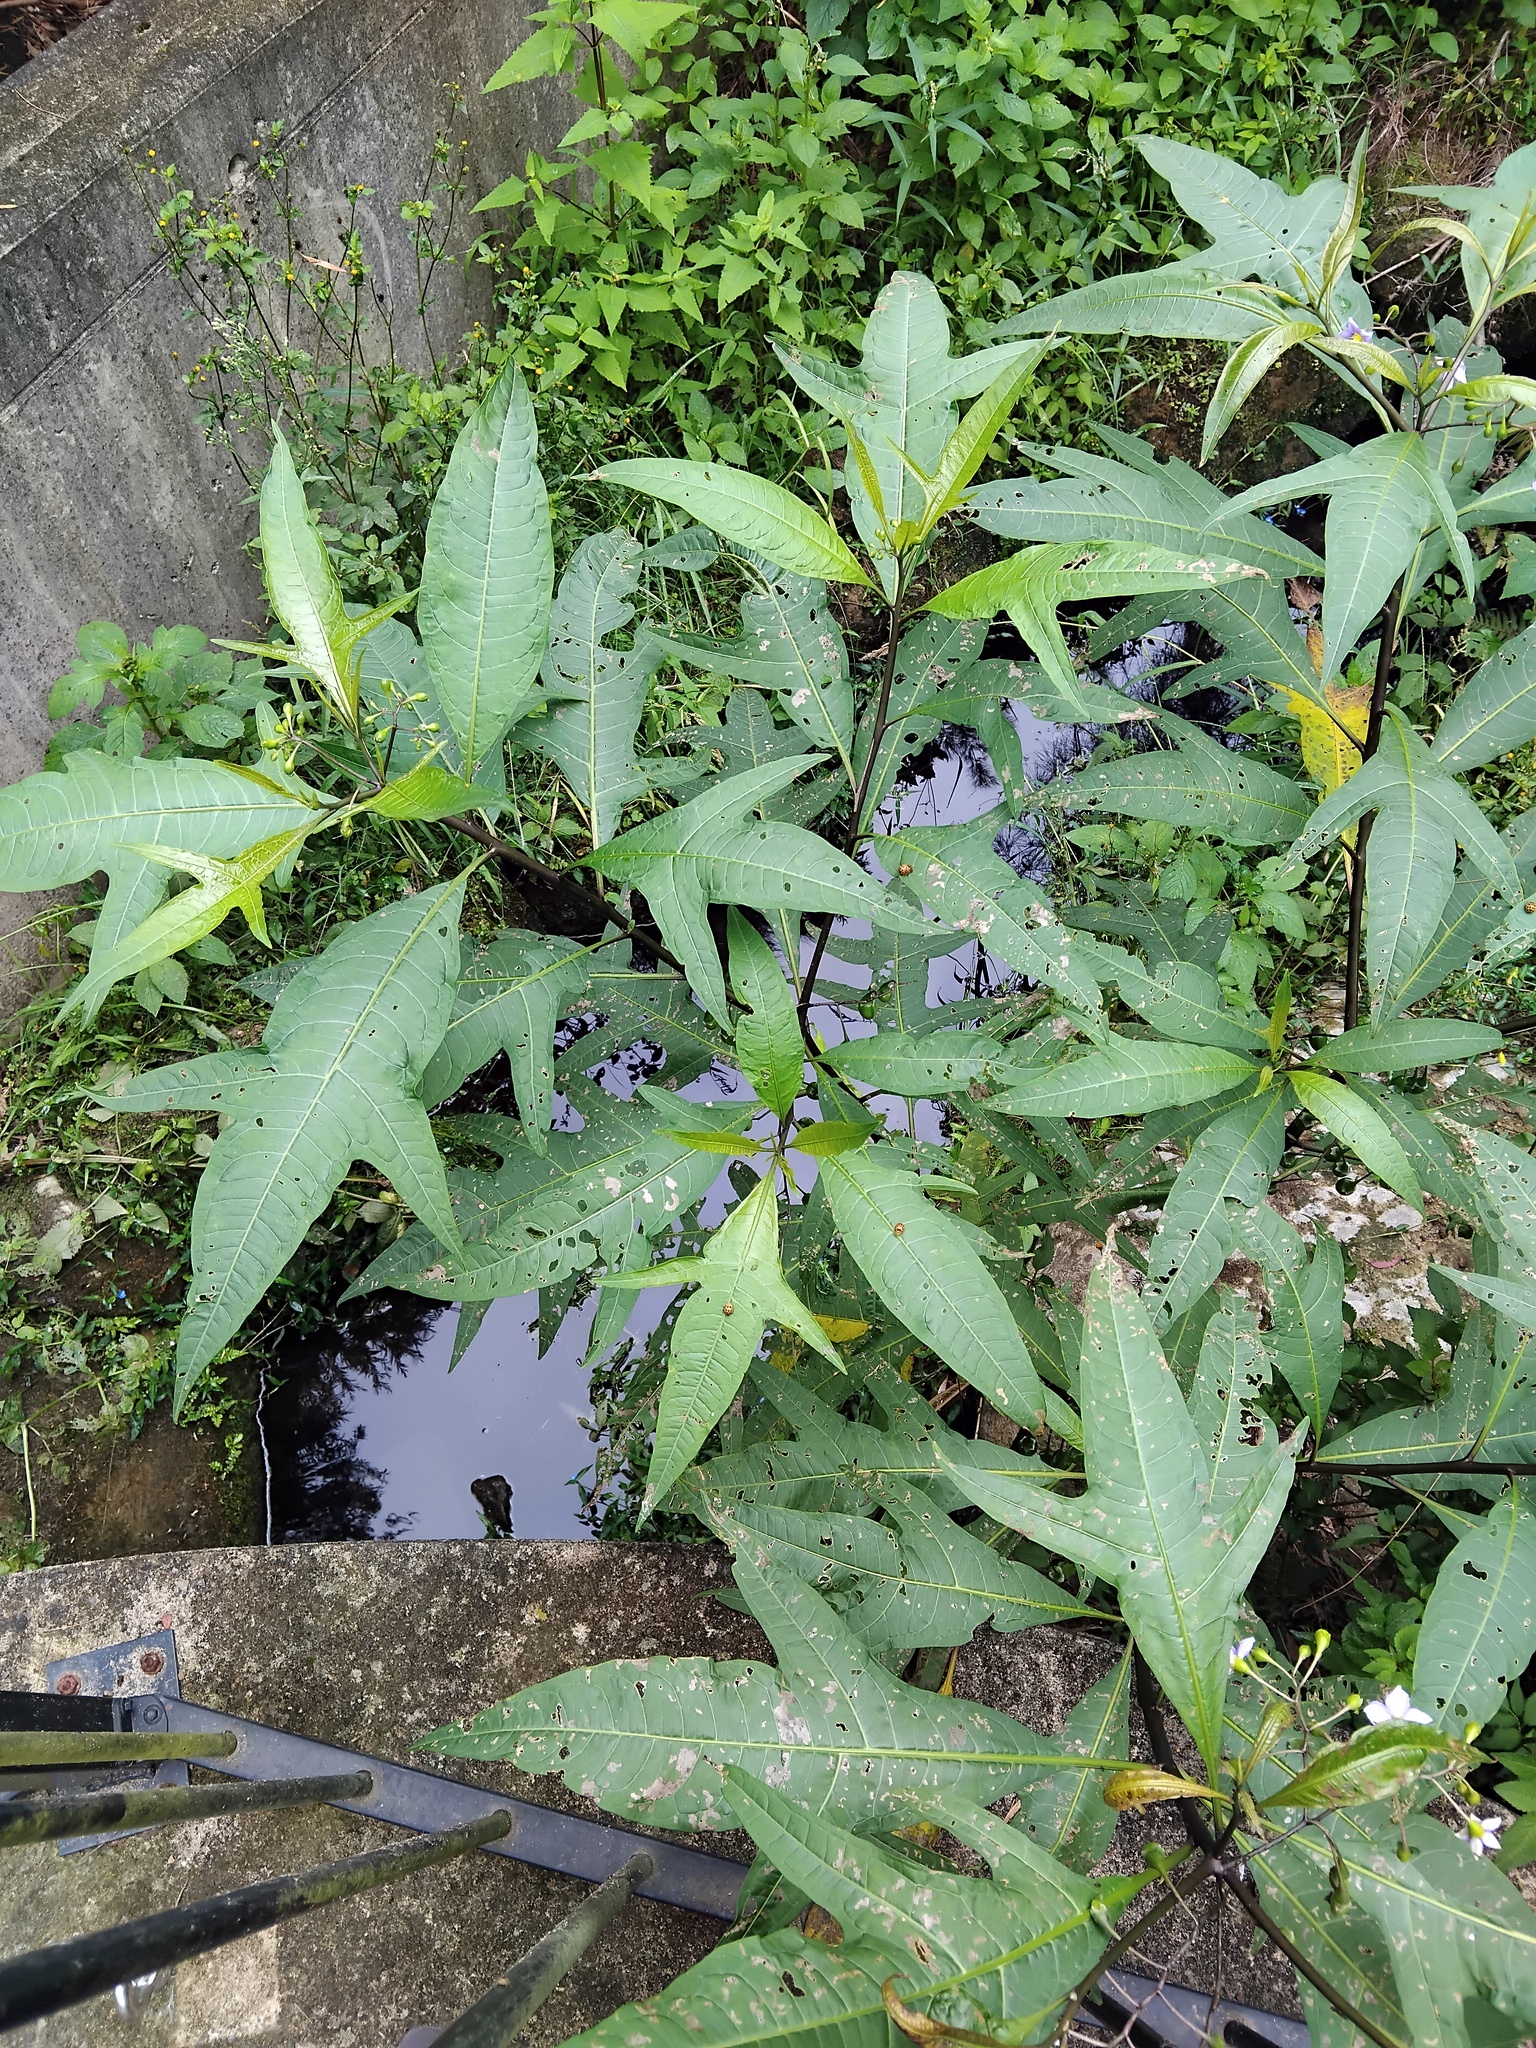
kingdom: Animalia
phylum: Arthropoda
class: Insecta
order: Coleoptera
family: Coccinellidae
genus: Henosepilachna
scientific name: Henosepilachna vigintioctopunctata
